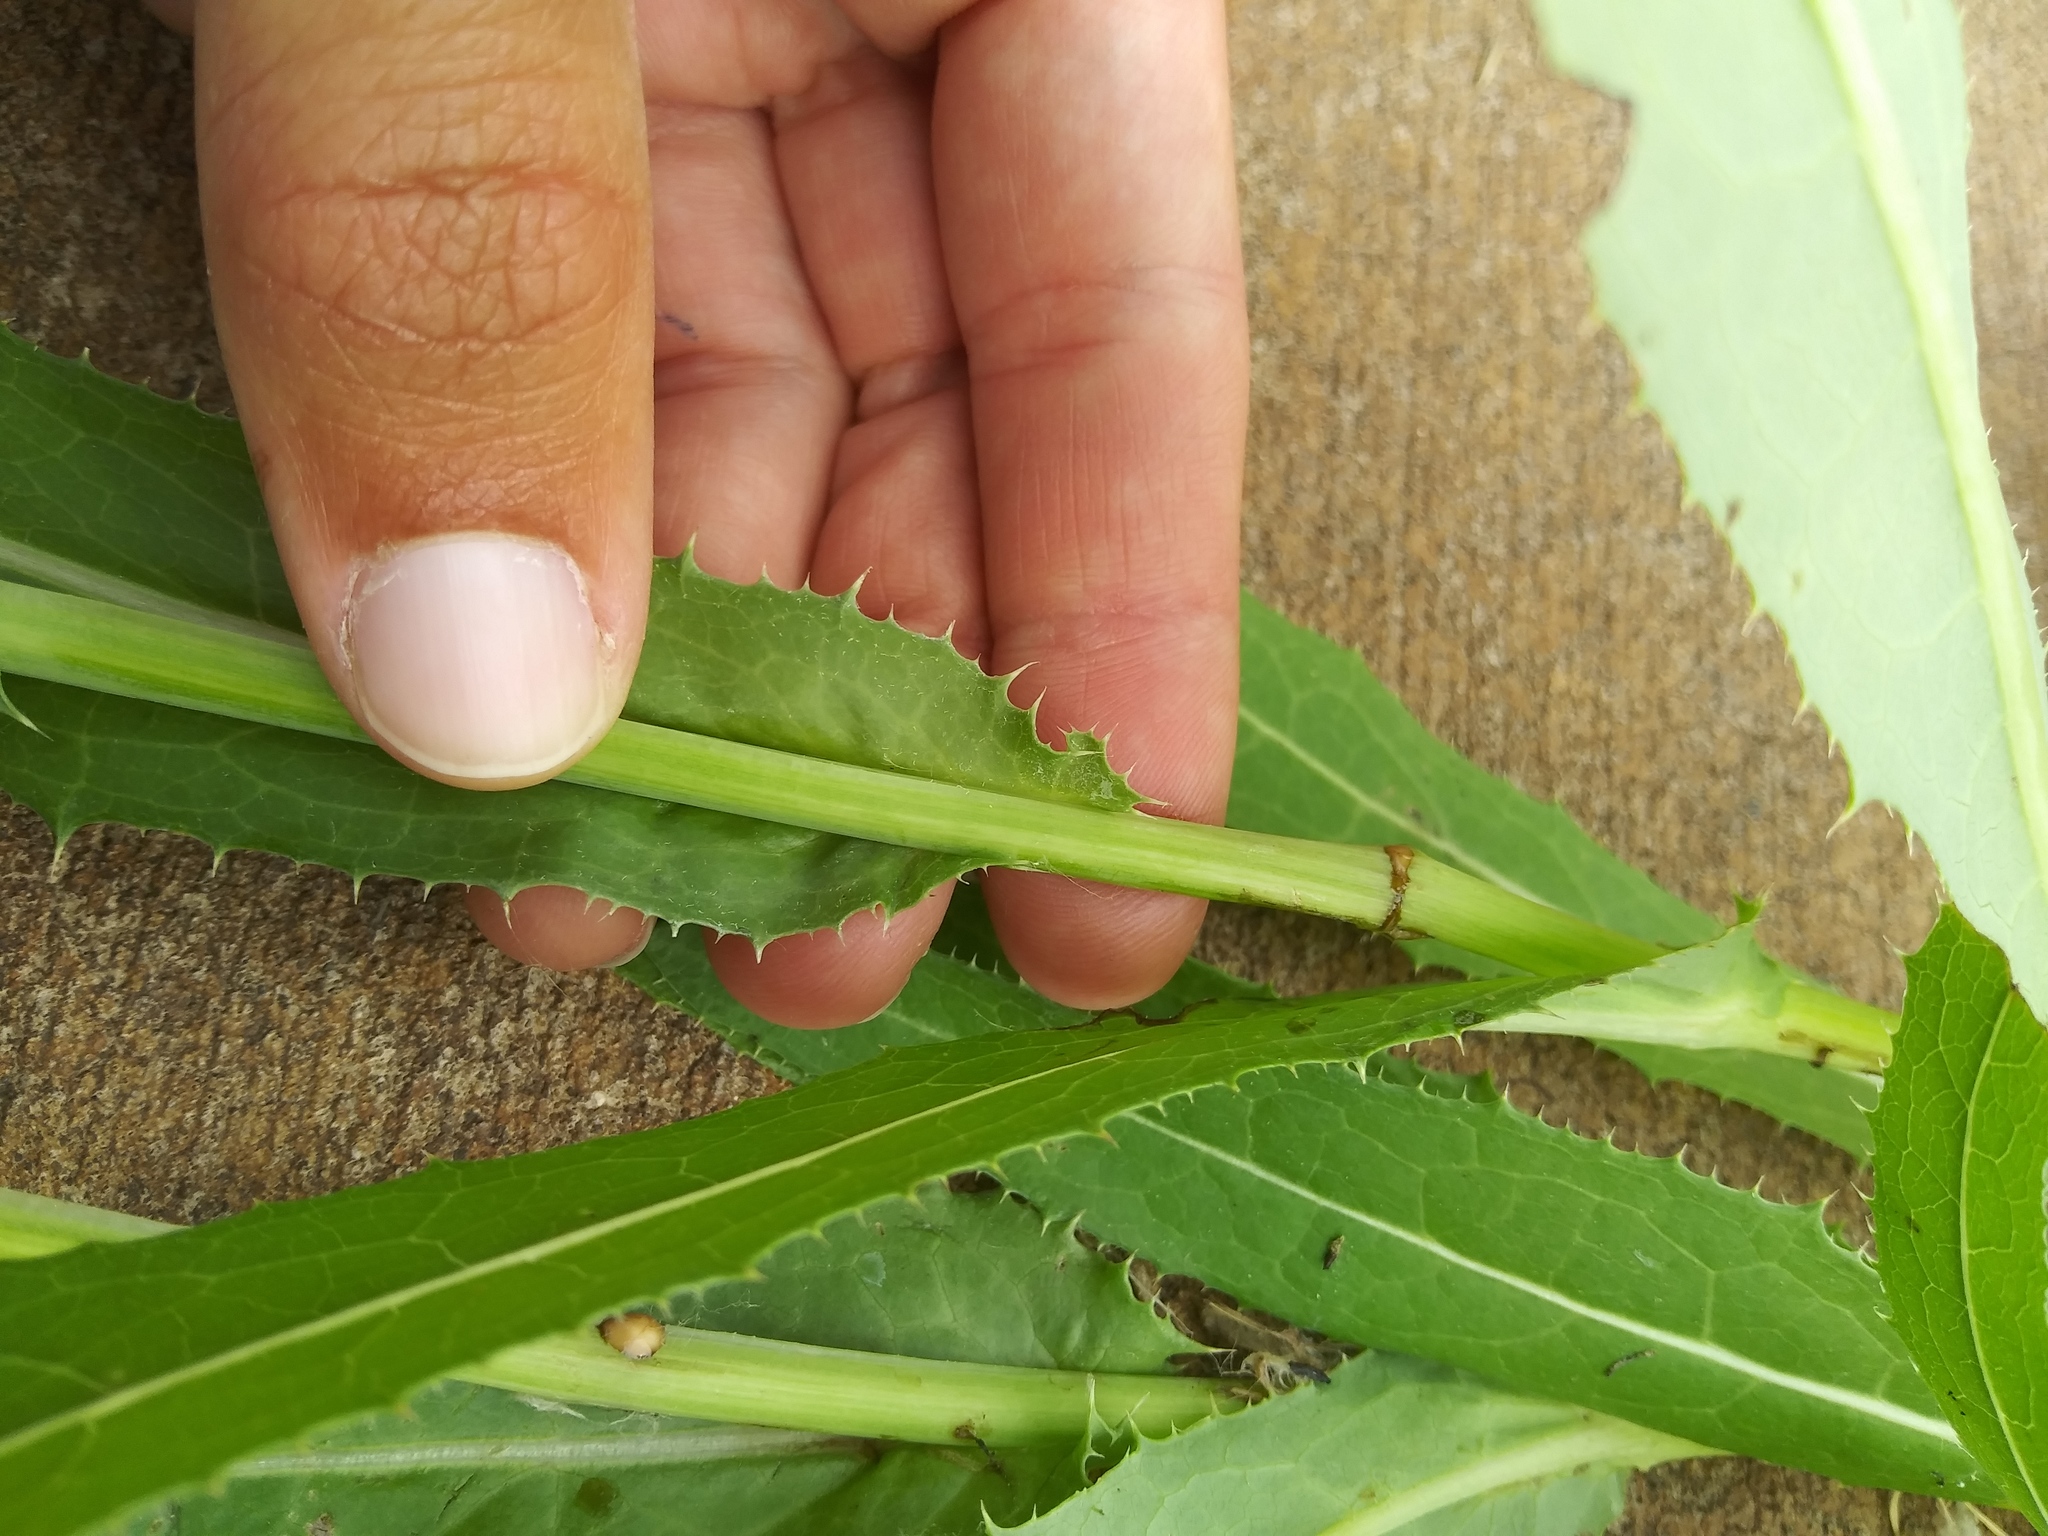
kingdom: Plantae
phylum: Tracheophyta
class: Magnoliopsida
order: Asterales
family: Asteraceae
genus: Sonchus
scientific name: Sonchus arvensis
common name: Perennial sow-thistle
